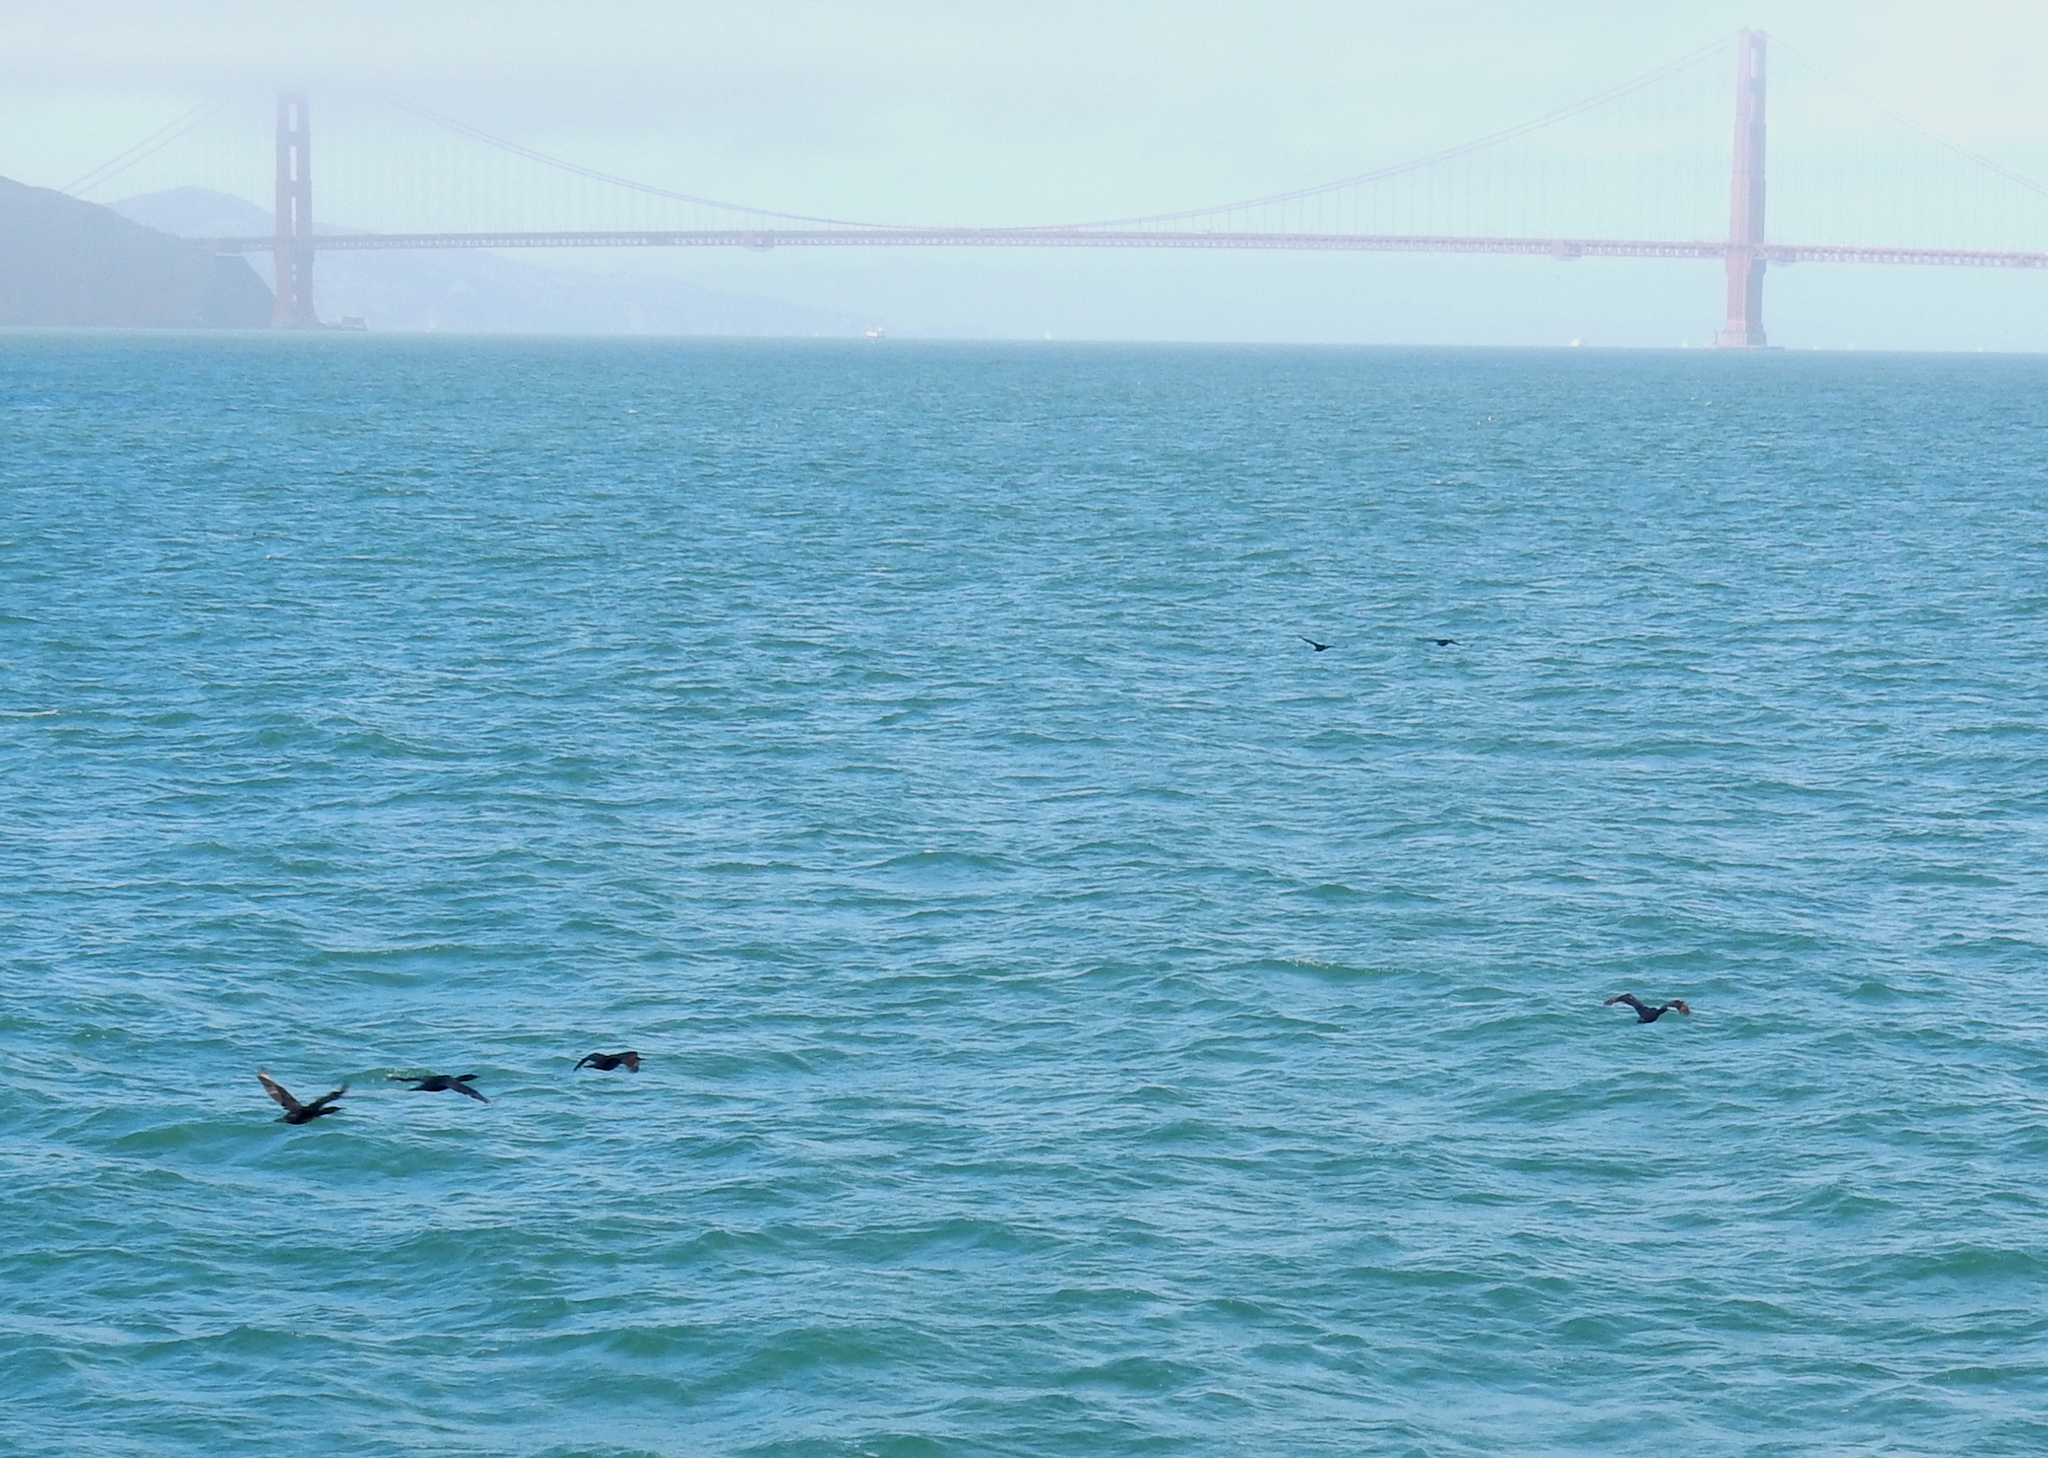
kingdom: Animalia
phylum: Chordata
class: Aves
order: Suliformes
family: Phalacrocoracidae
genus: Urile
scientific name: Urile penicillatus
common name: Brandt's cormorant
